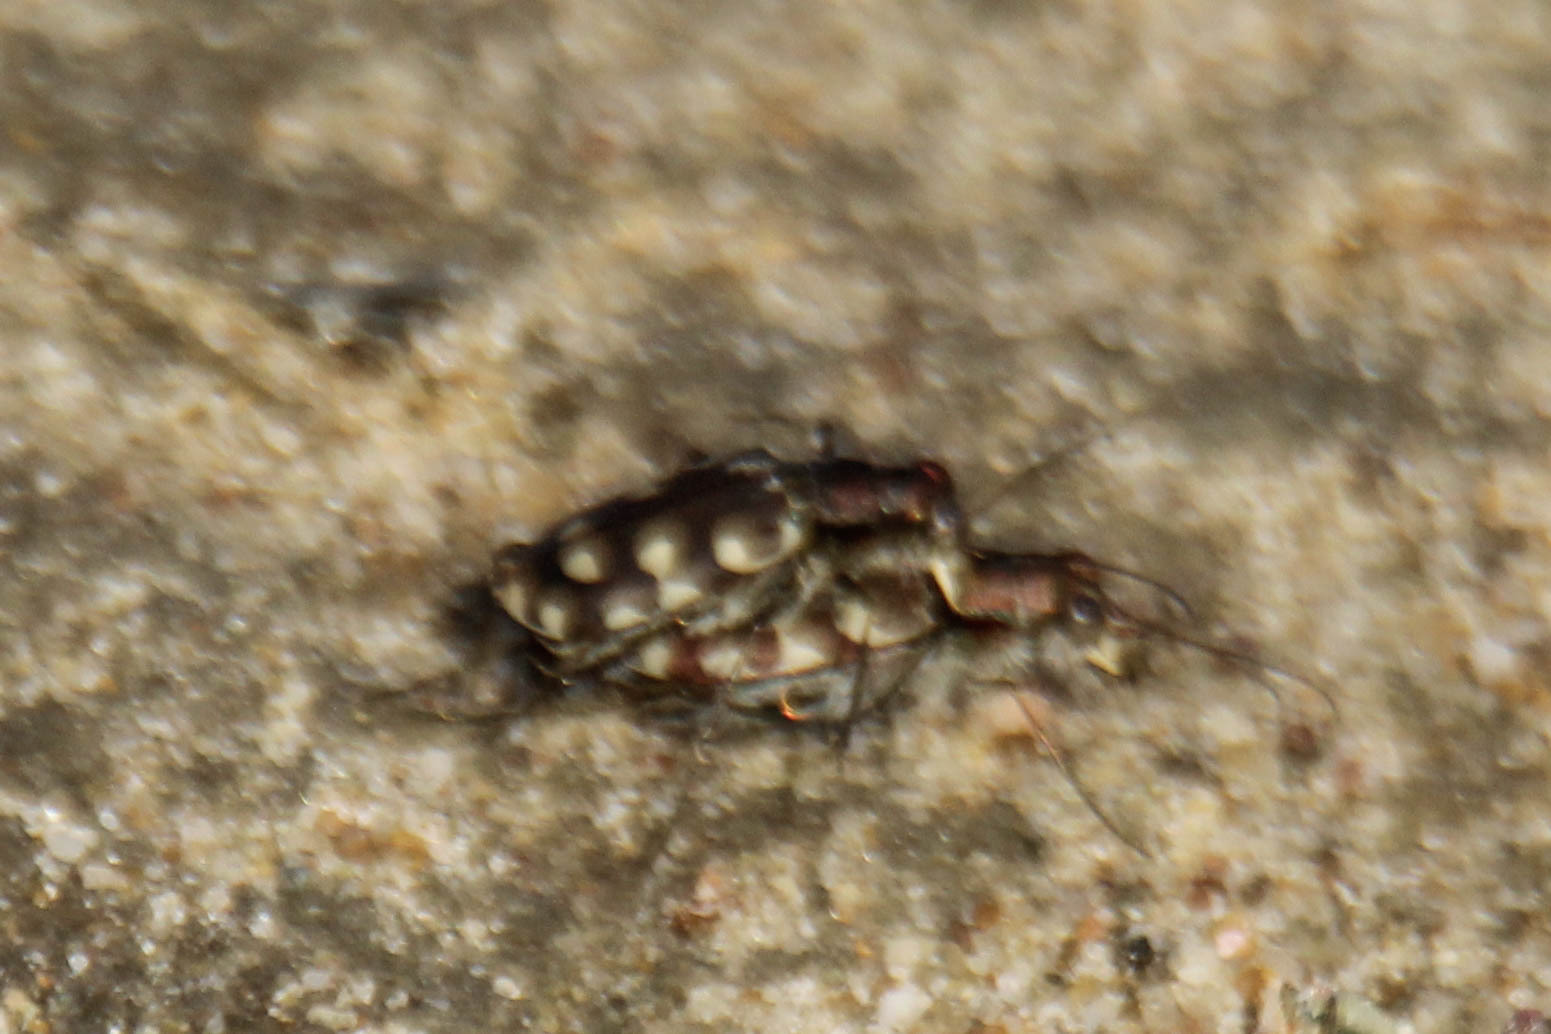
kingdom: Animalia
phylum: Arthropoda
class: Insecta
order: Coleoptera
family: Carabidae
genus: Cicindela
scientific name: Cicindela littoralis
